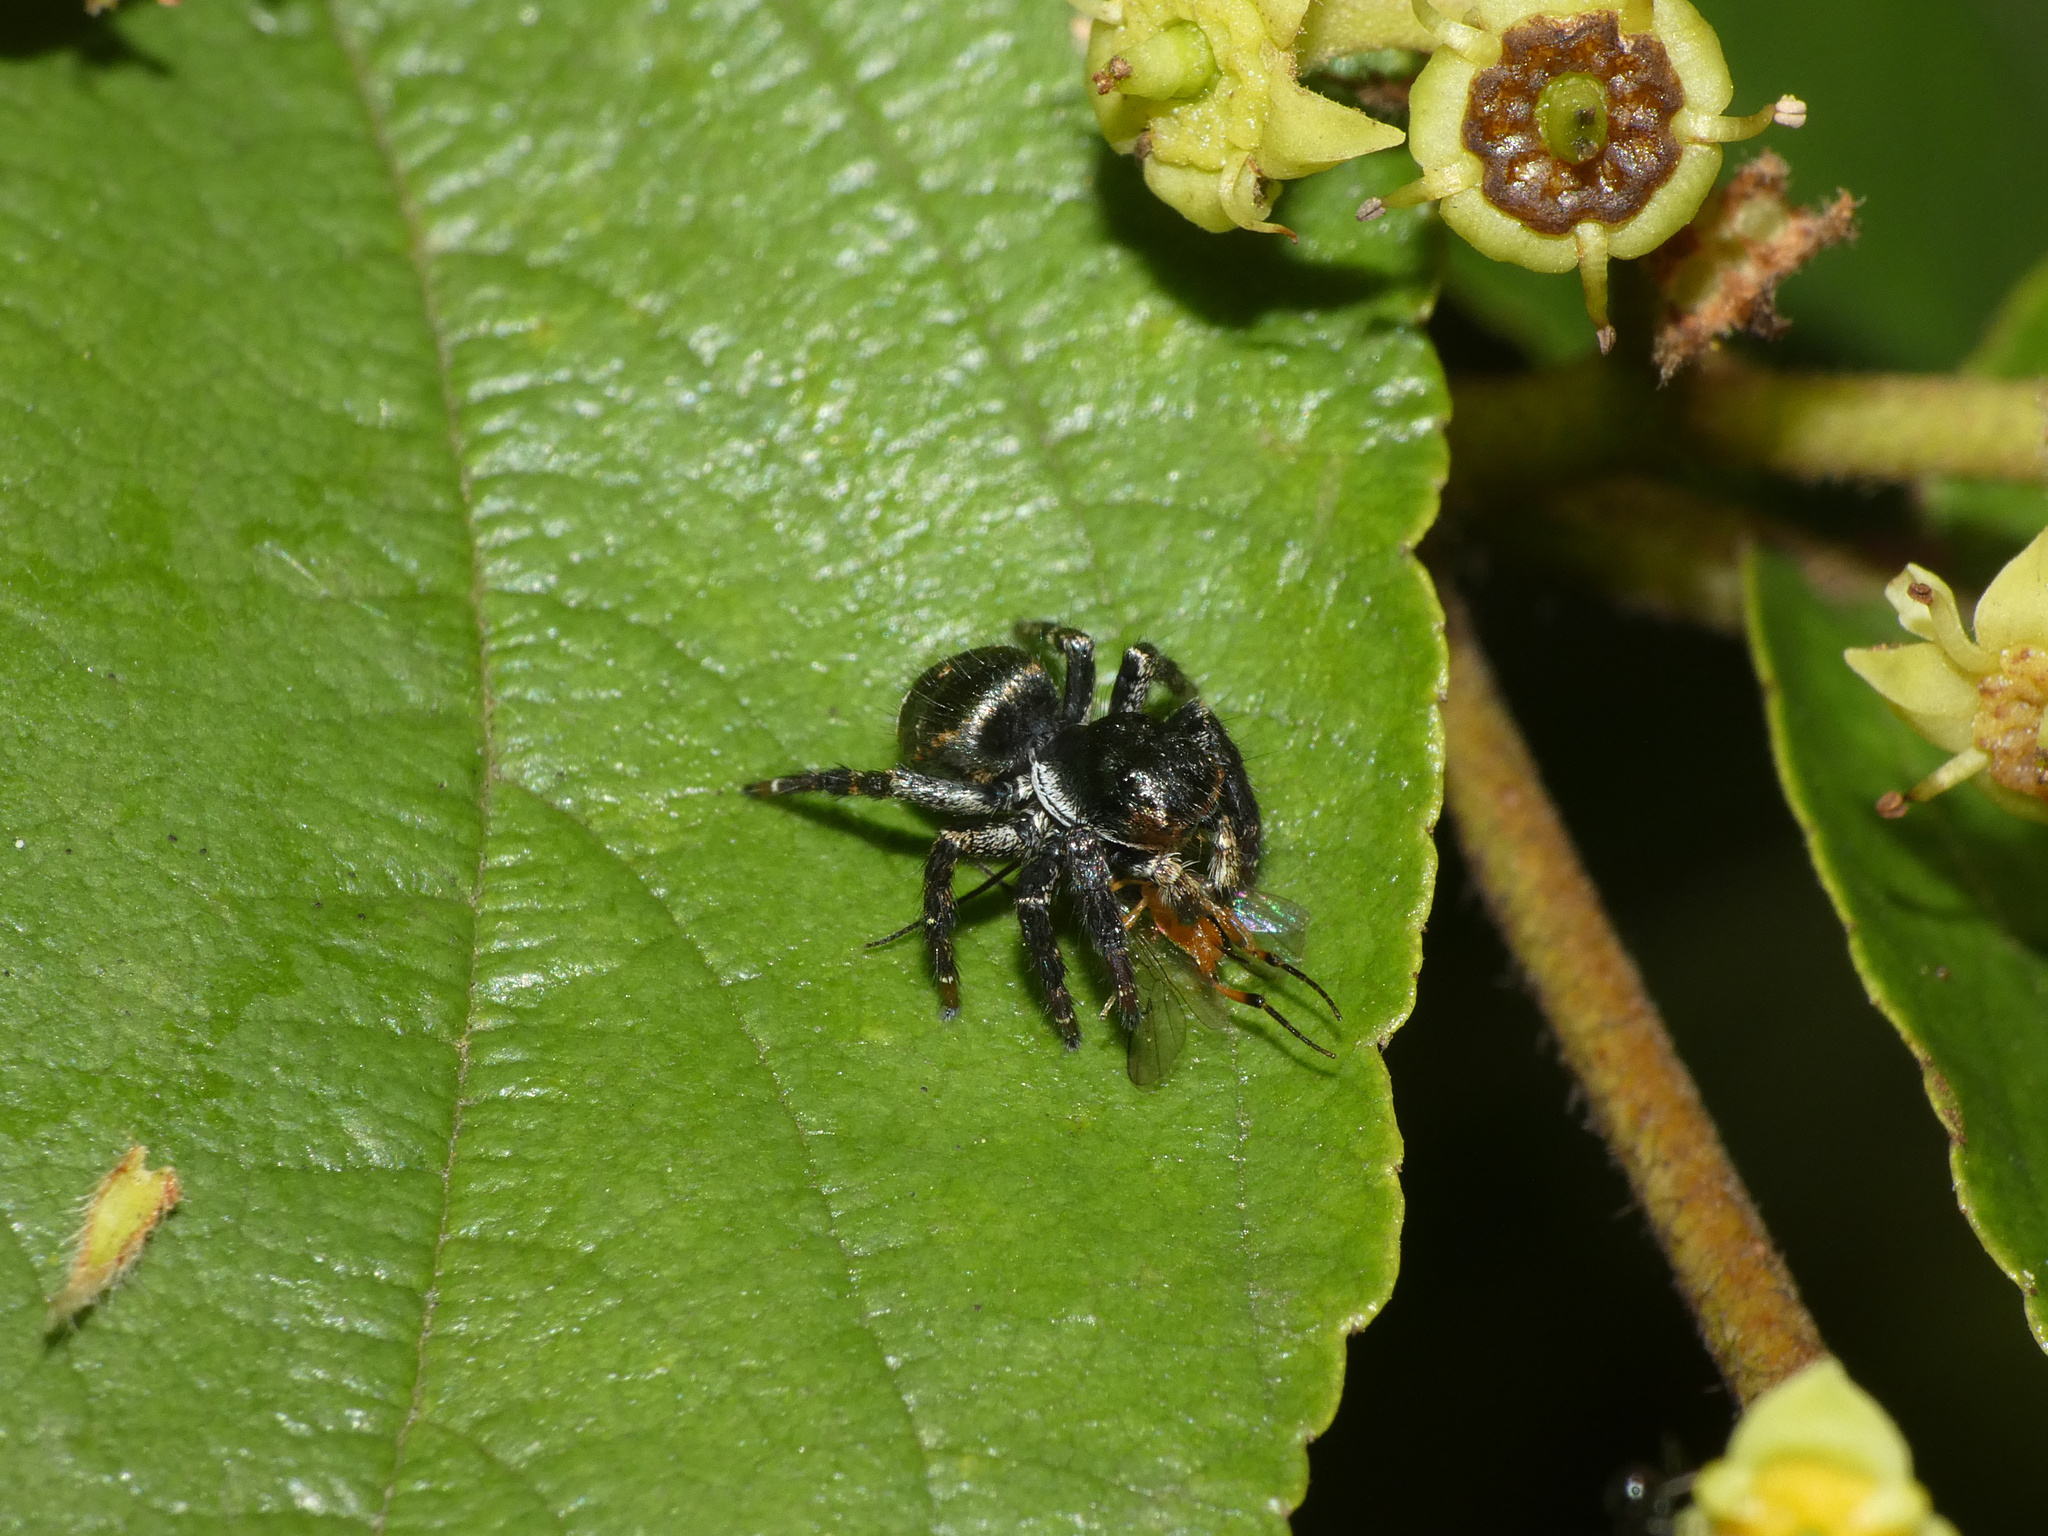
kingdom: Animalia
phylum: Arthropoda
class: Arachnida
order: Araneae
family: Salticidae
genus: Baryphas
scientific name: Baryphas ahenus
